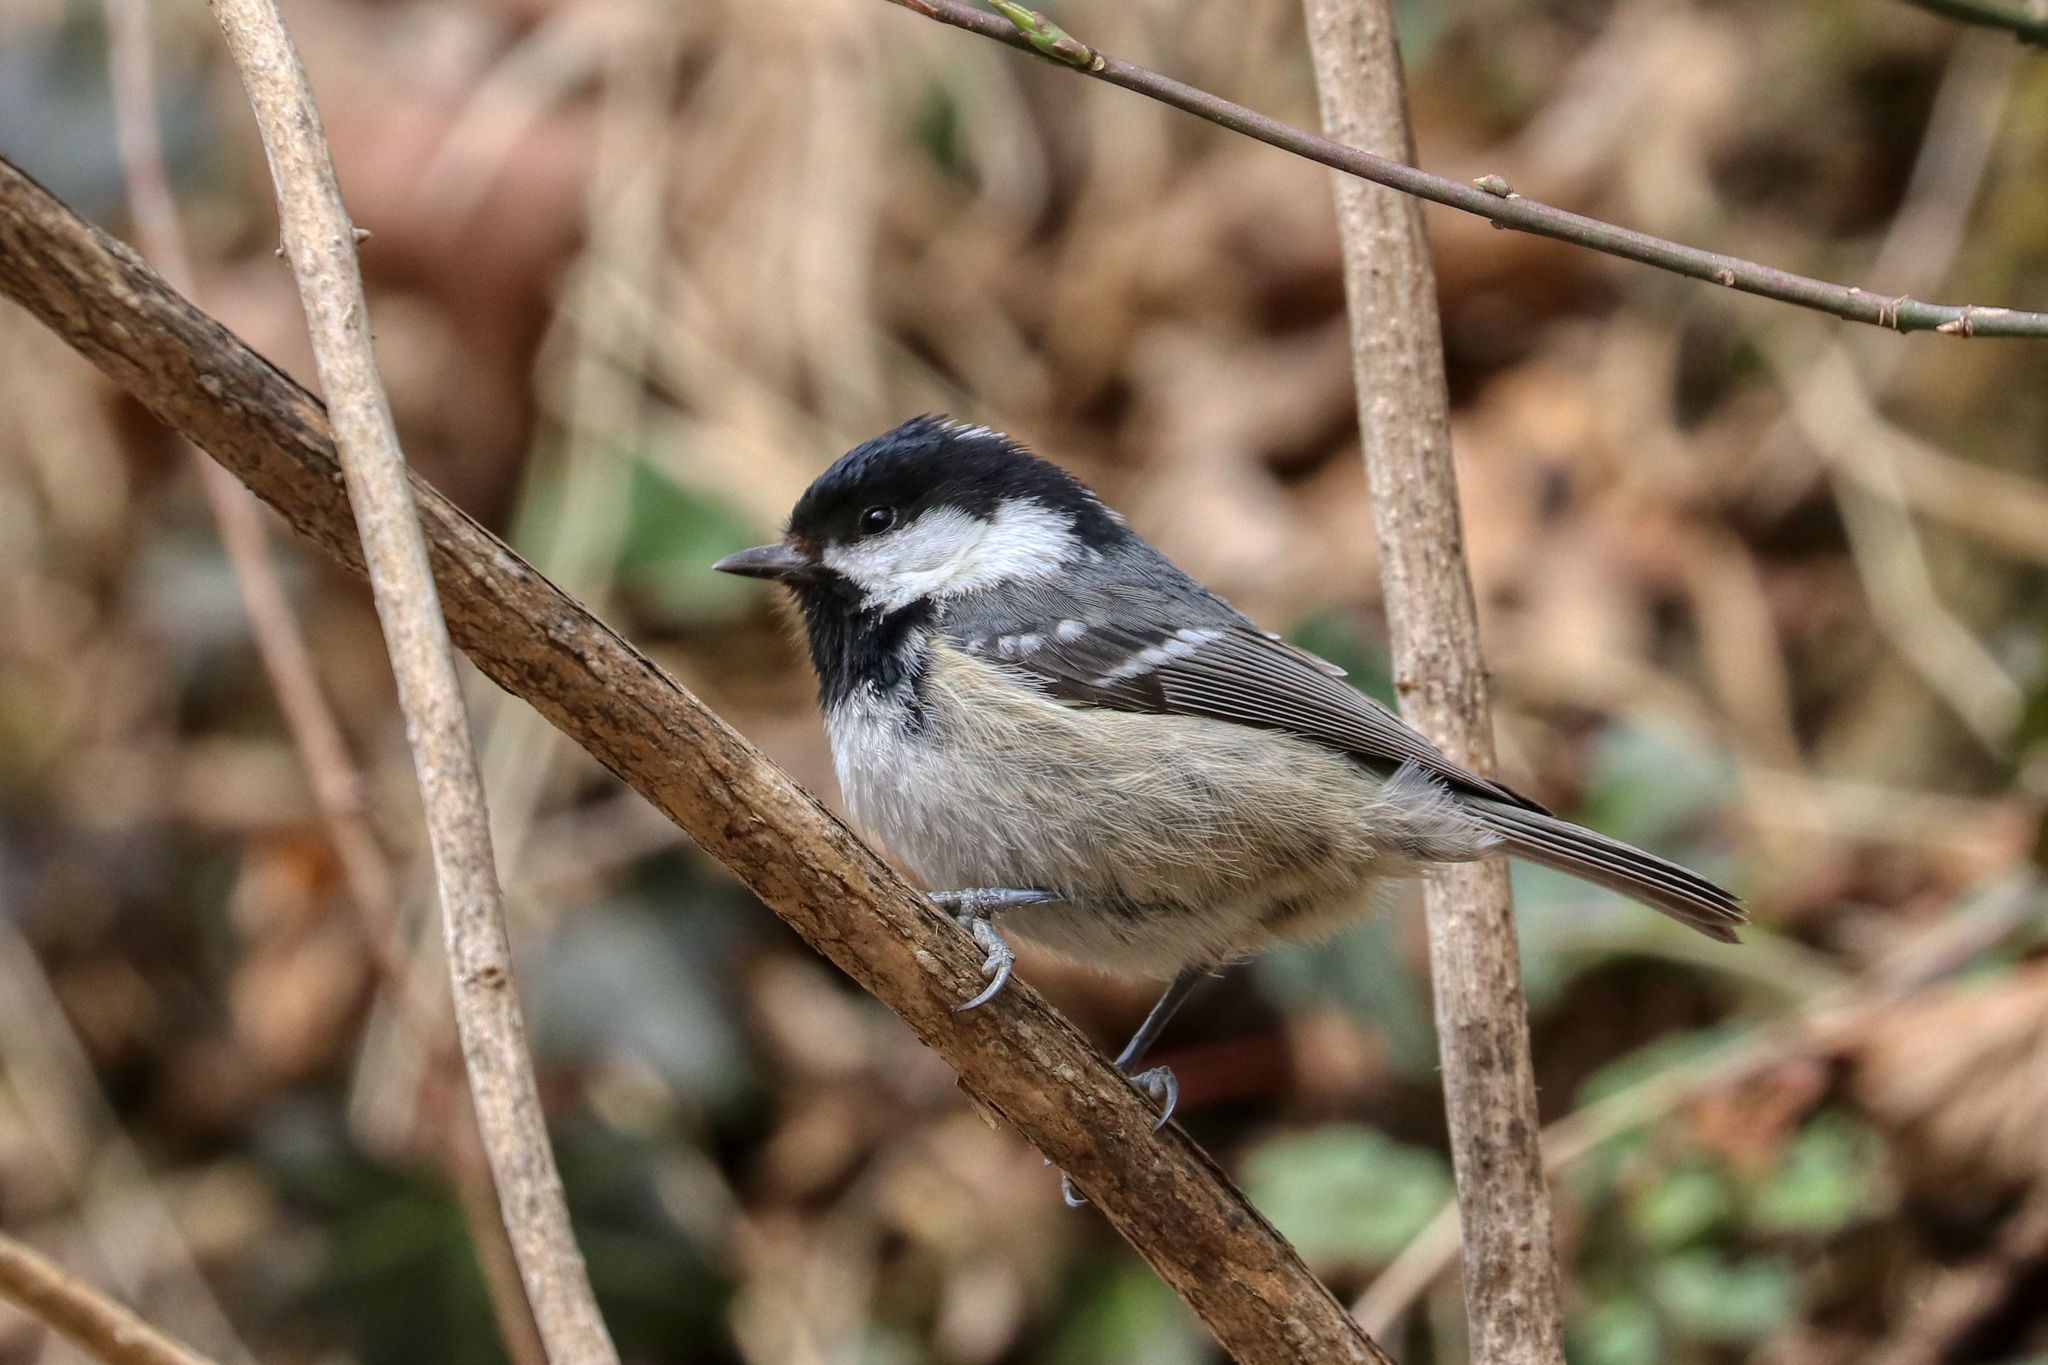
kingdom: Animalia
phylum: Chordata
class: Aves
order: Passeriformes
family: Paridae
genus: Periparus
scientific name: Periparus ater
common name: Coal tit
